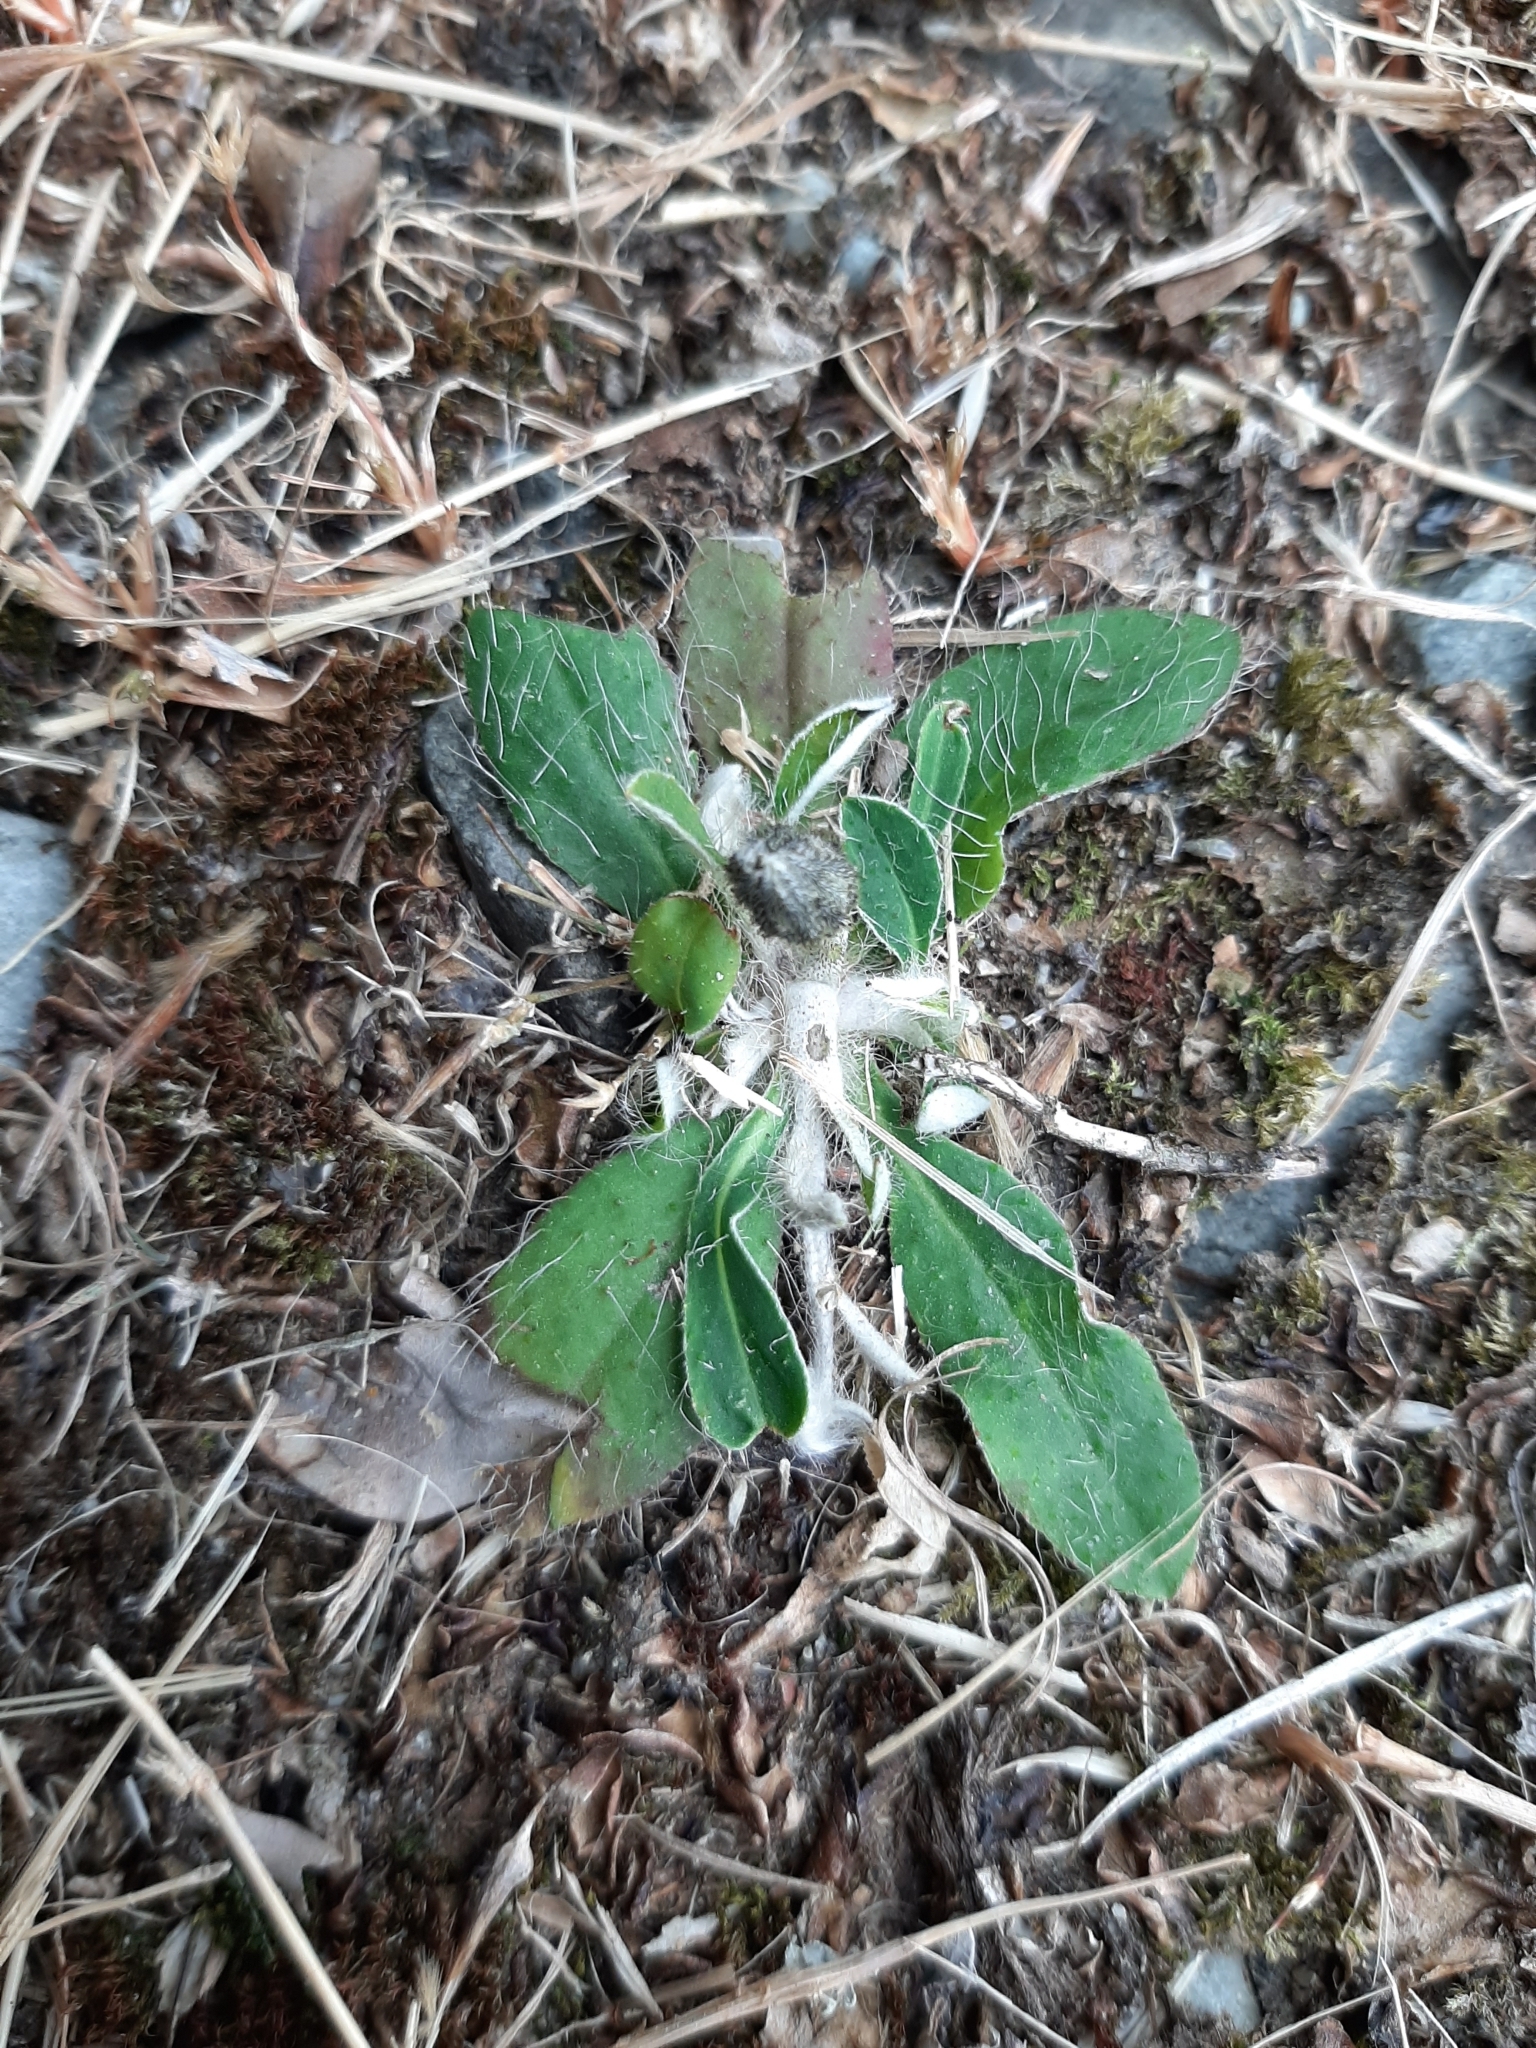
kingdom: Plantae
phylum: Tracheophyta
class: Magnoliopsida
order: Asterales
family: Asteraceae
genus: Pilosella
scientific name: Pilosella officinarum
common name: Mouse-ear hawkweed
